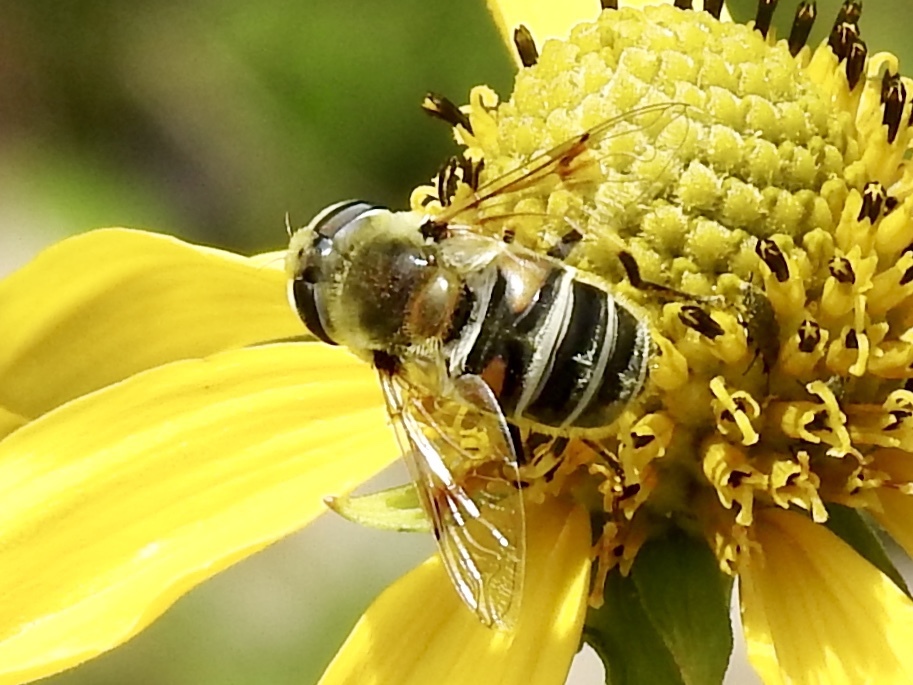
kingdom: Animalia
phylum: Arthropoda
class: Insecta
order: Diptera
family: Syrphidae
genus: Eristalis
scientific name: Eristalis stipator
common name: Yellow-shouldered drone fly
